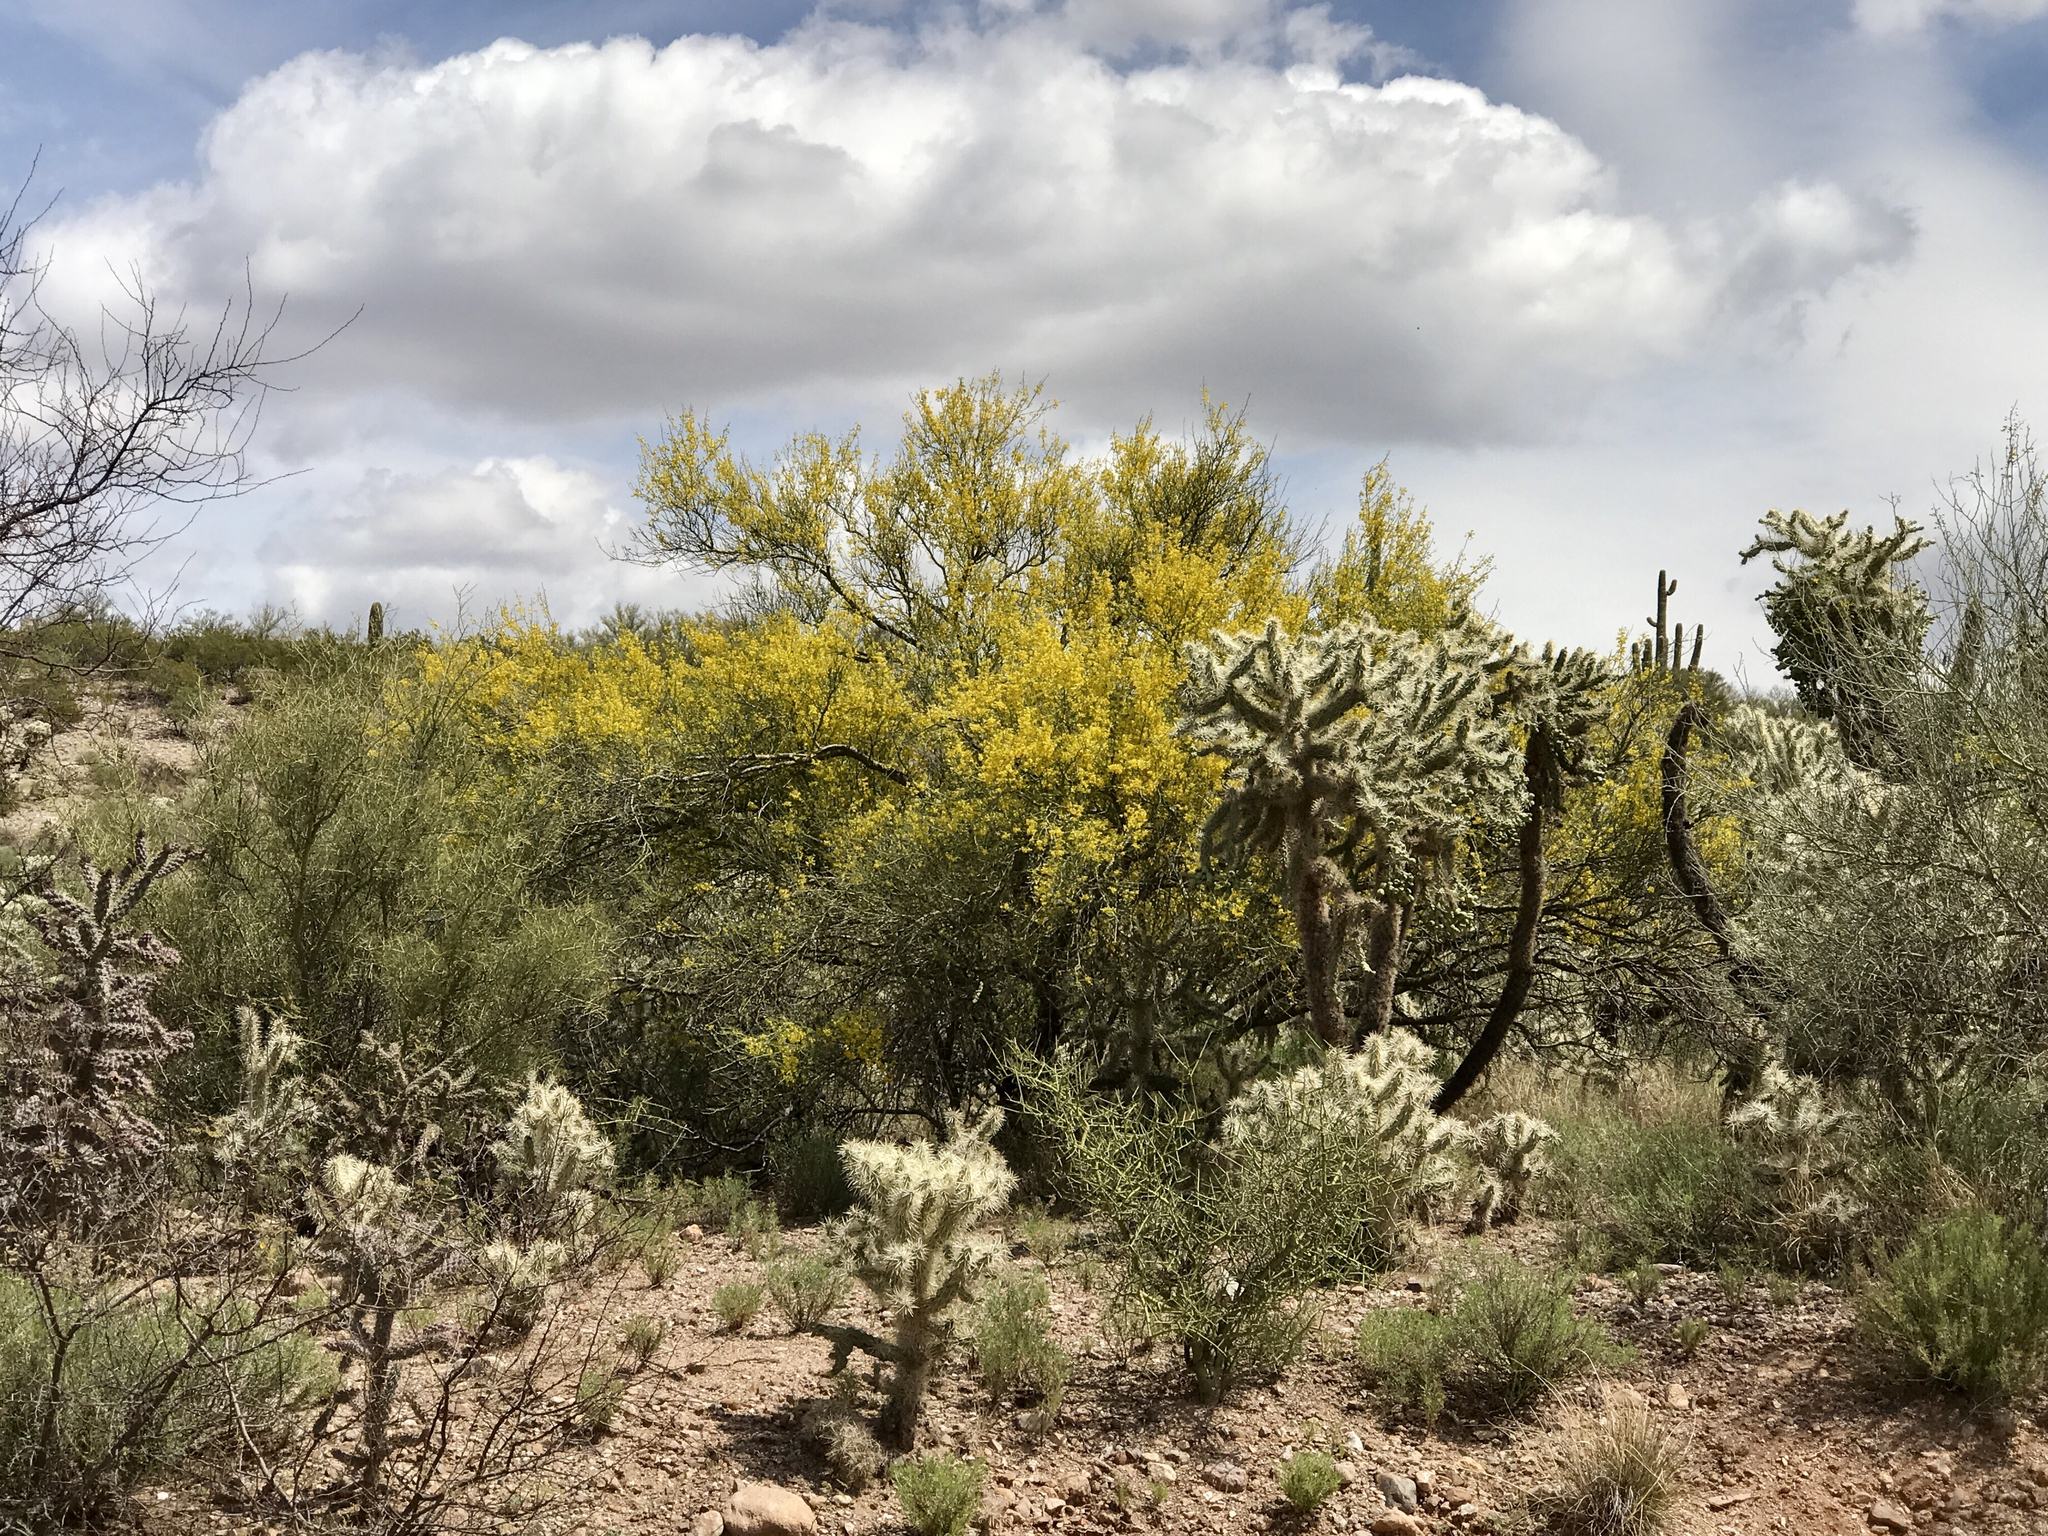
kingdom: Plantae
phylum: Tracheophyta
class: Magnoliopsida
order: Fabales
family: Fabaceae
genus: Parkinsonia
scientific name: Parkinsonia florida
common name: Blue paloverde
